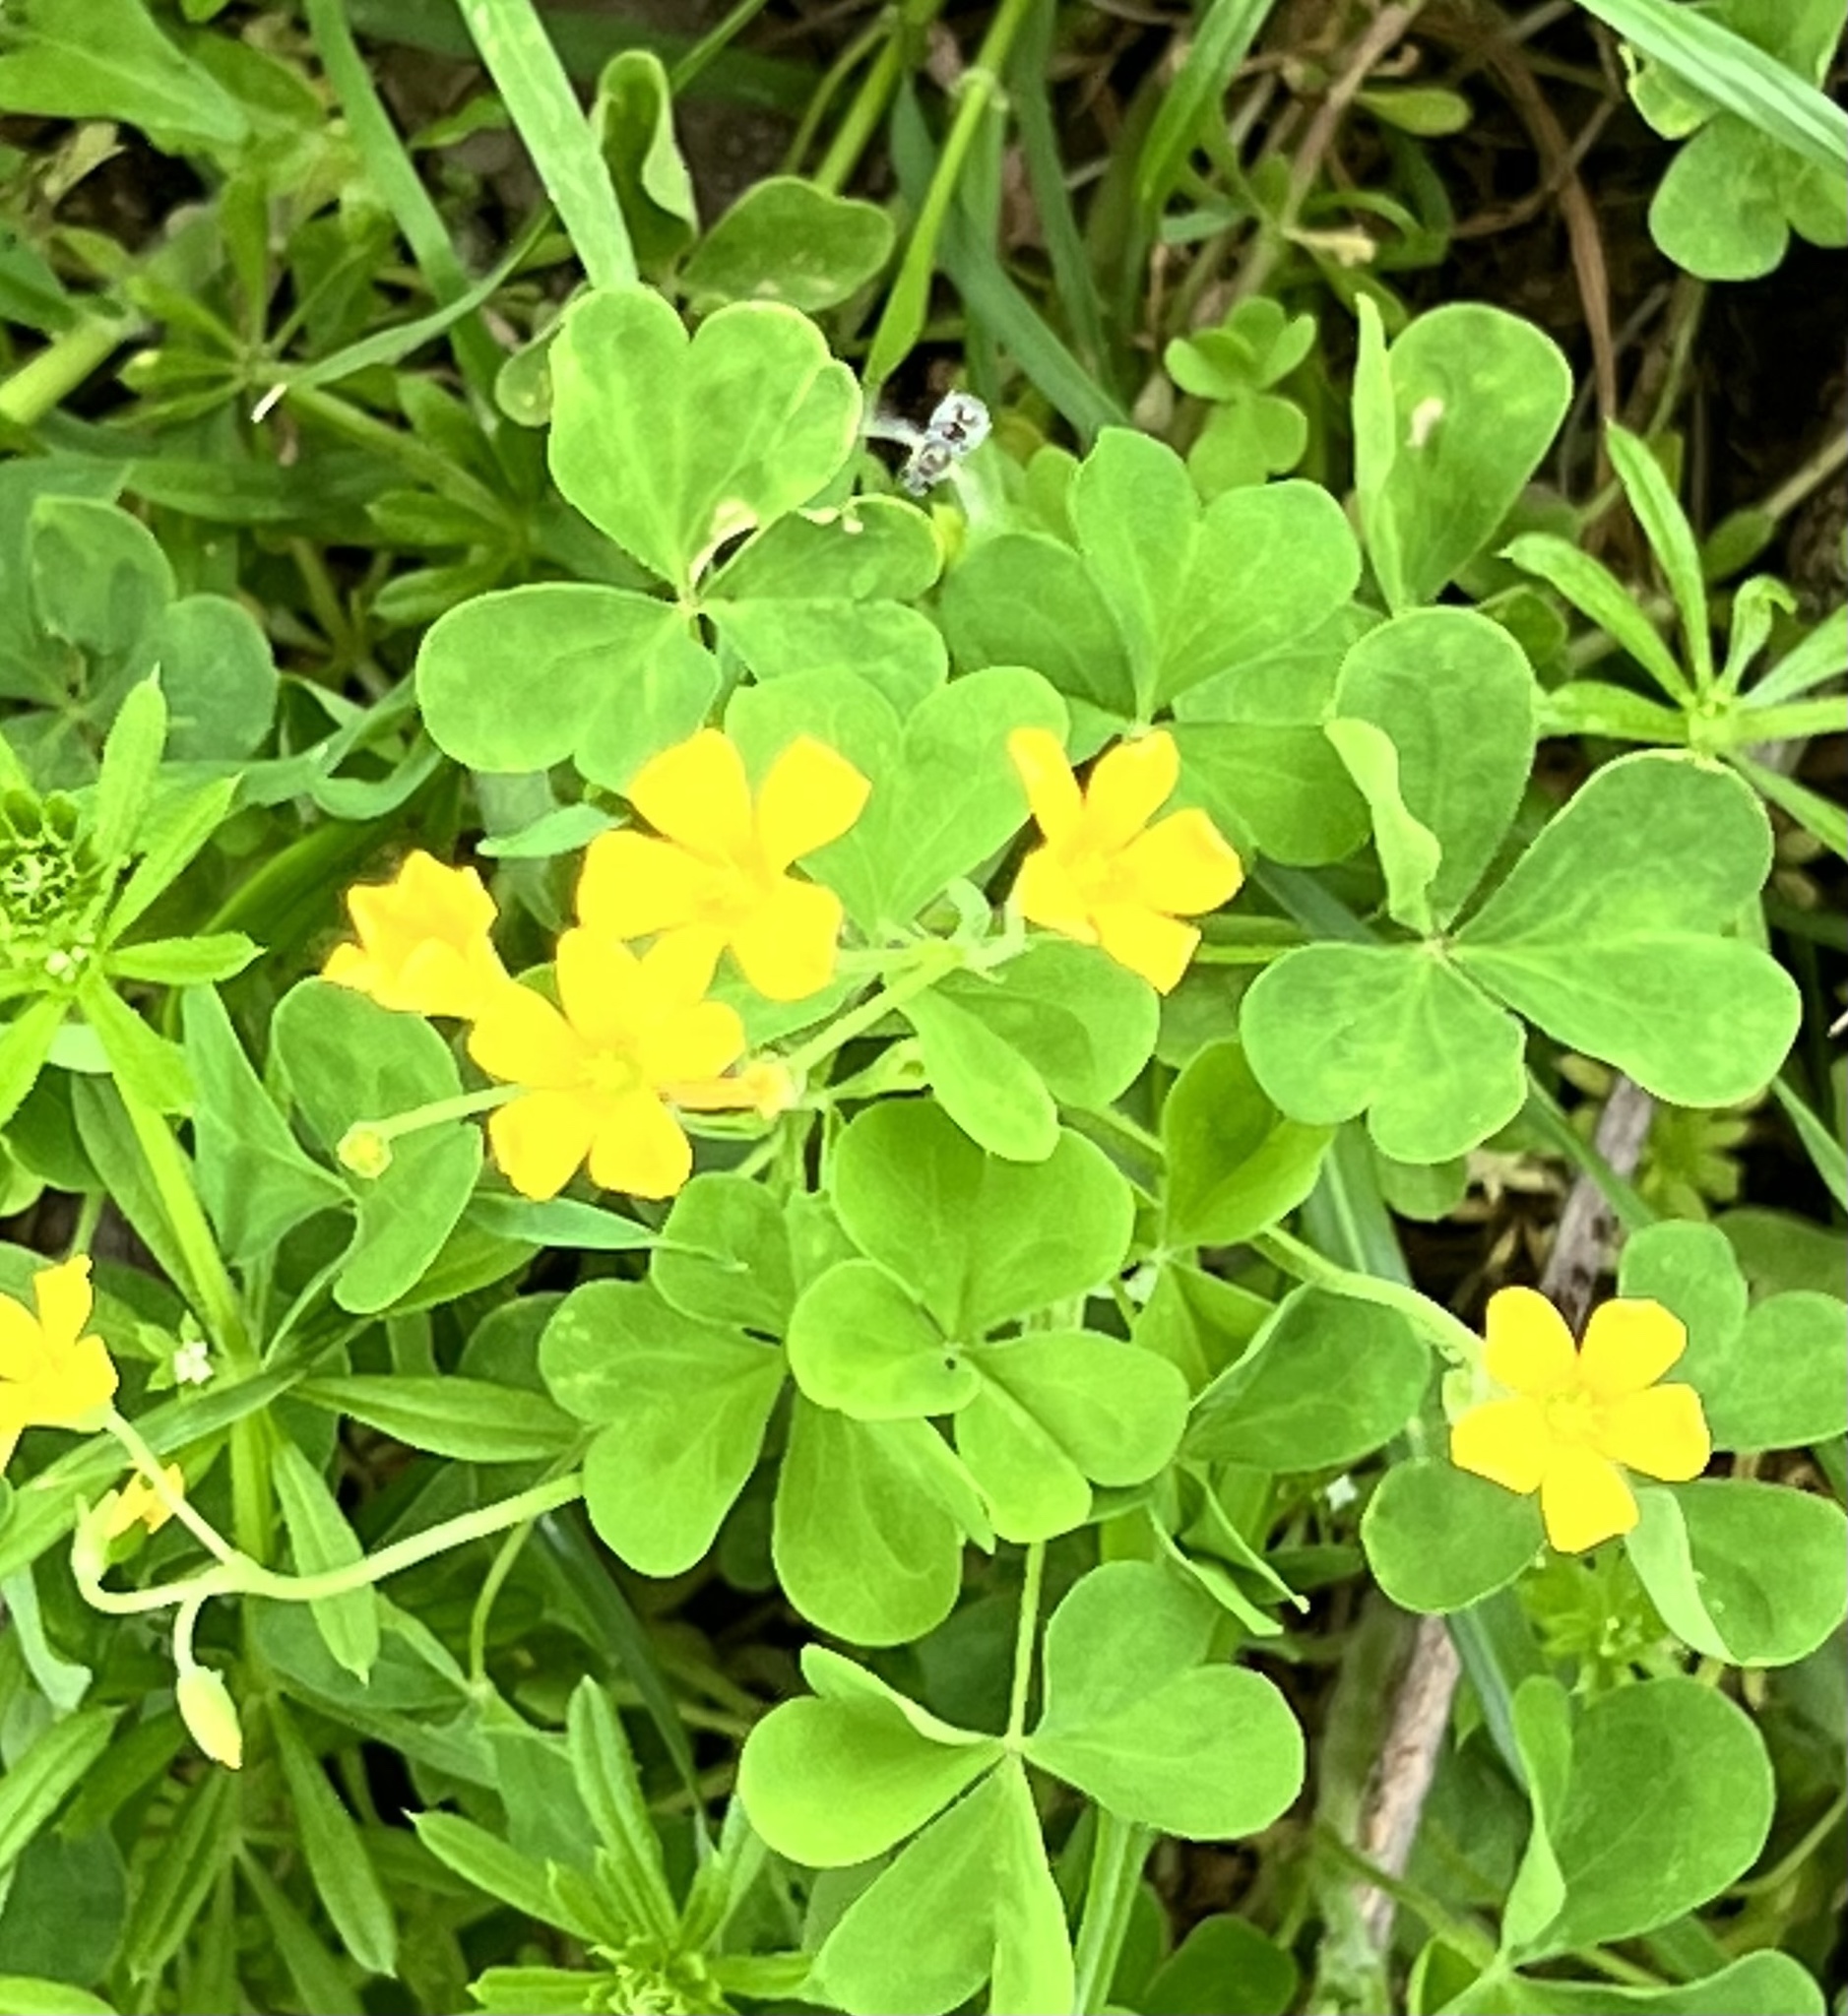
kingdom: Plantae
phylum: Tracheophyta
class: Magnoliopsida
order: Oxalidales
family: Oxalidaceae
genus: Oxalis
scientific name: Oxalis dillenii
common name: Sussex yellow-sorrel
